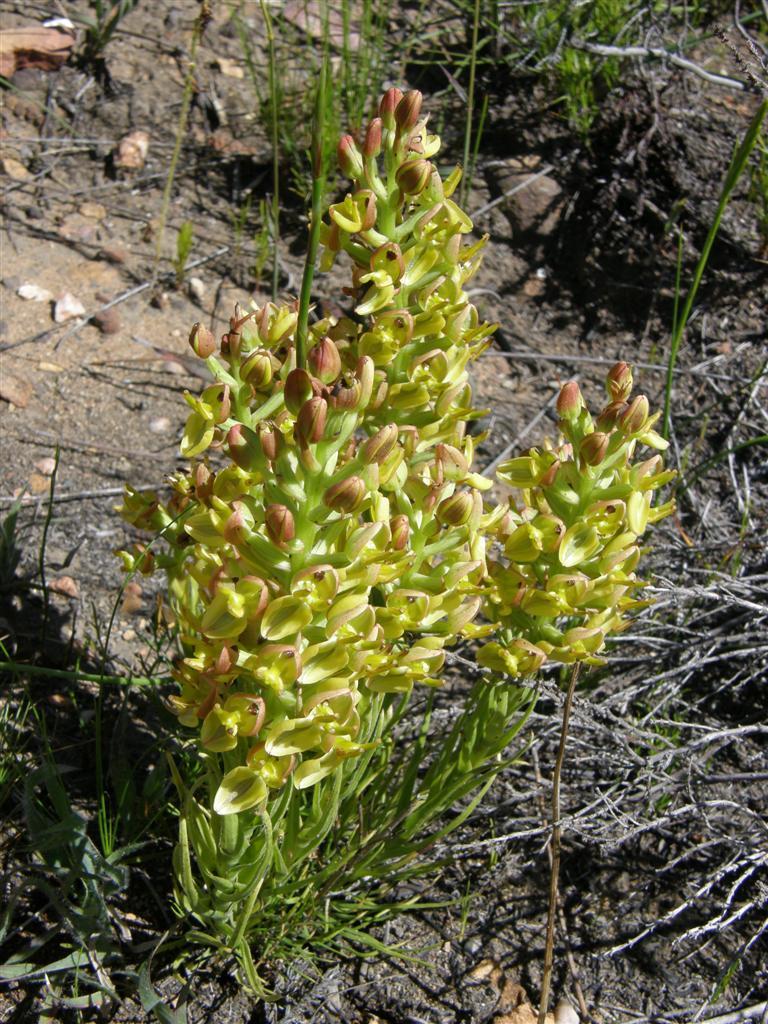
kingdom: Plantae
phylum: Tracheophyta
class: Liliopsida
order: Asparagales
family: Orchidaceae
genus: Ceratandra
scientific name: Ceratandra atrata
